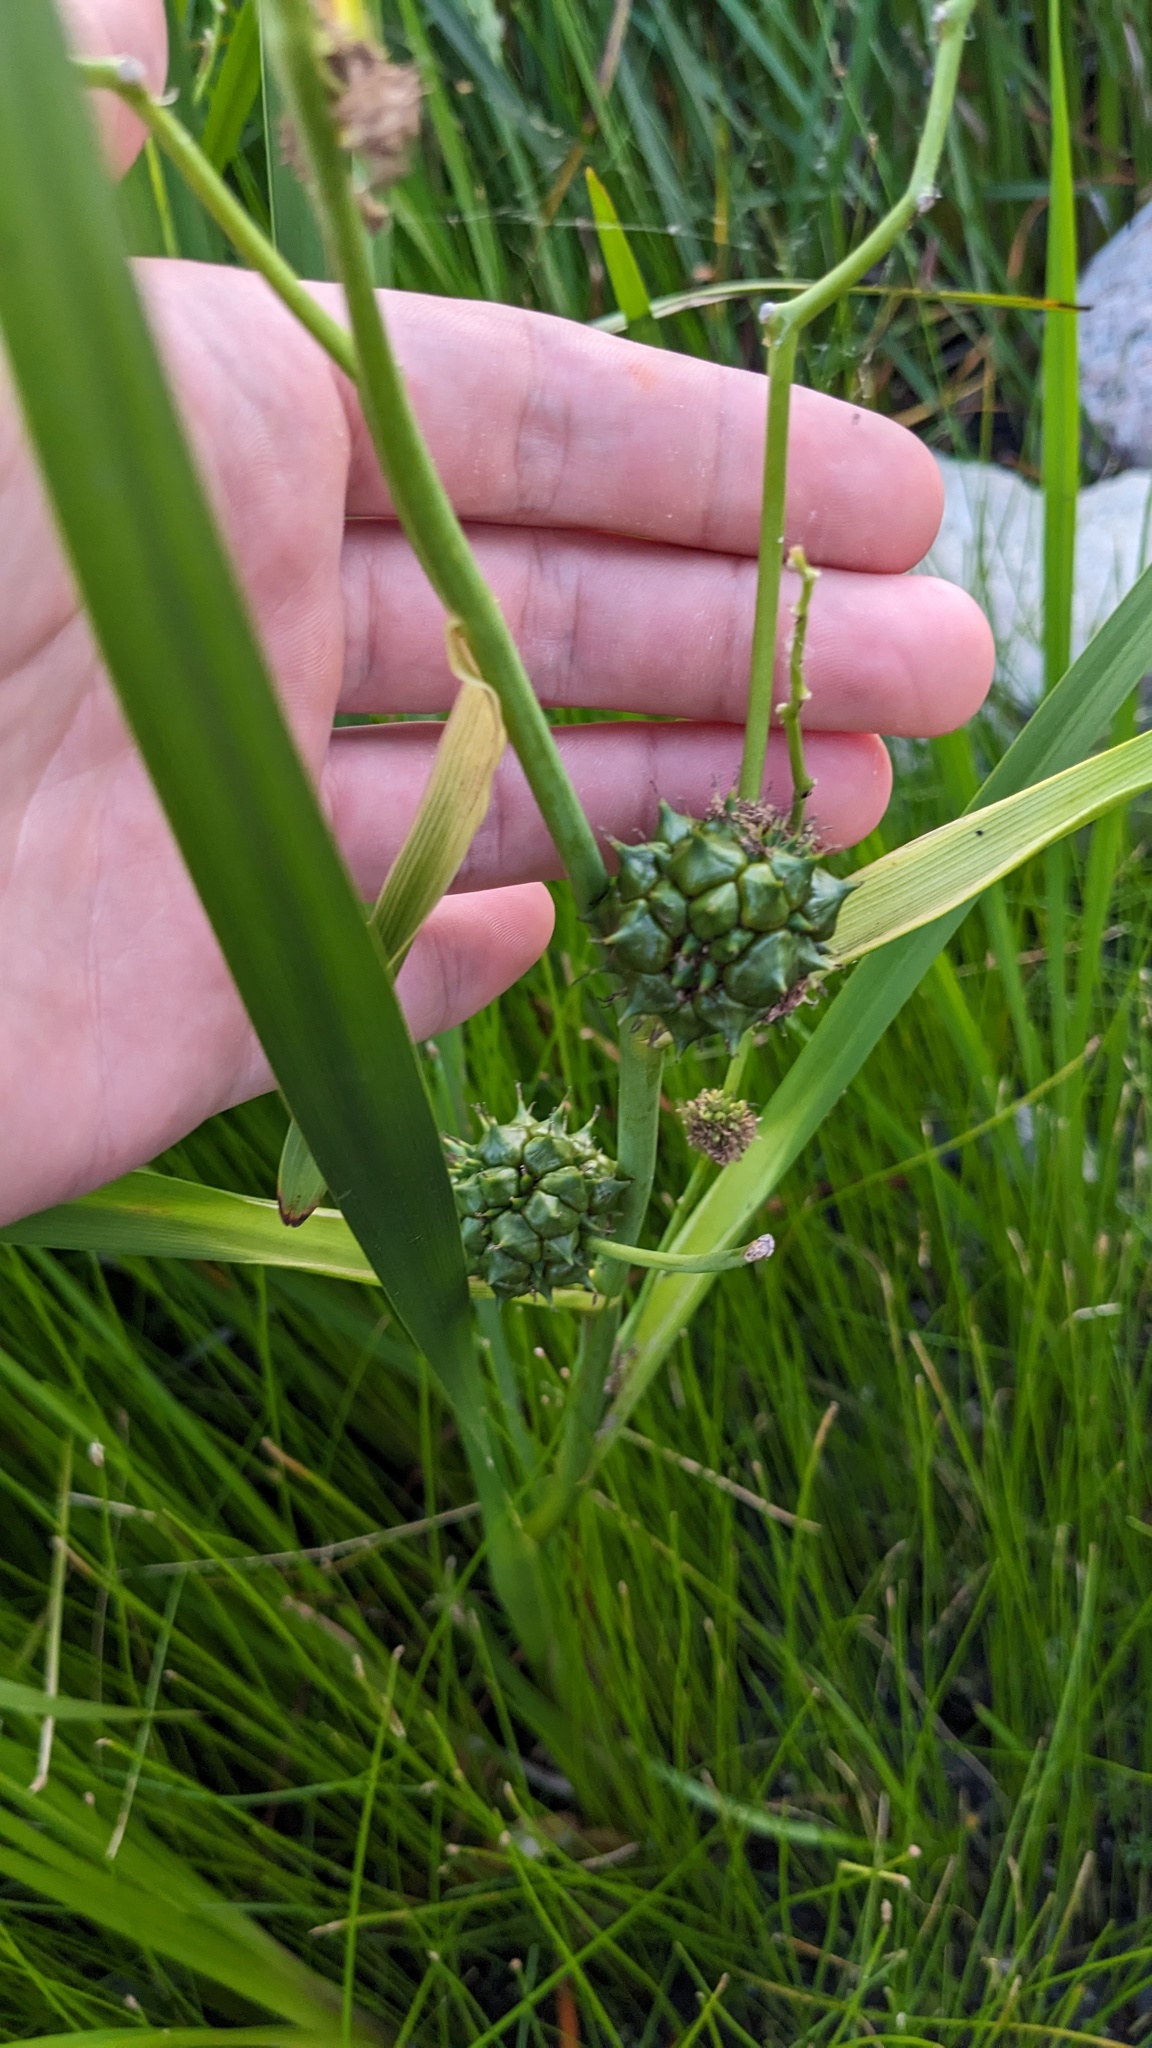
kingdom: Plantae
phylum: Tracheophyta
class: Liliopsida
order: Poales
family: Typhaceae
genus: Sparganium
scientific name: Sparganium eurycarpum
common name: Broad-fruited burreed
